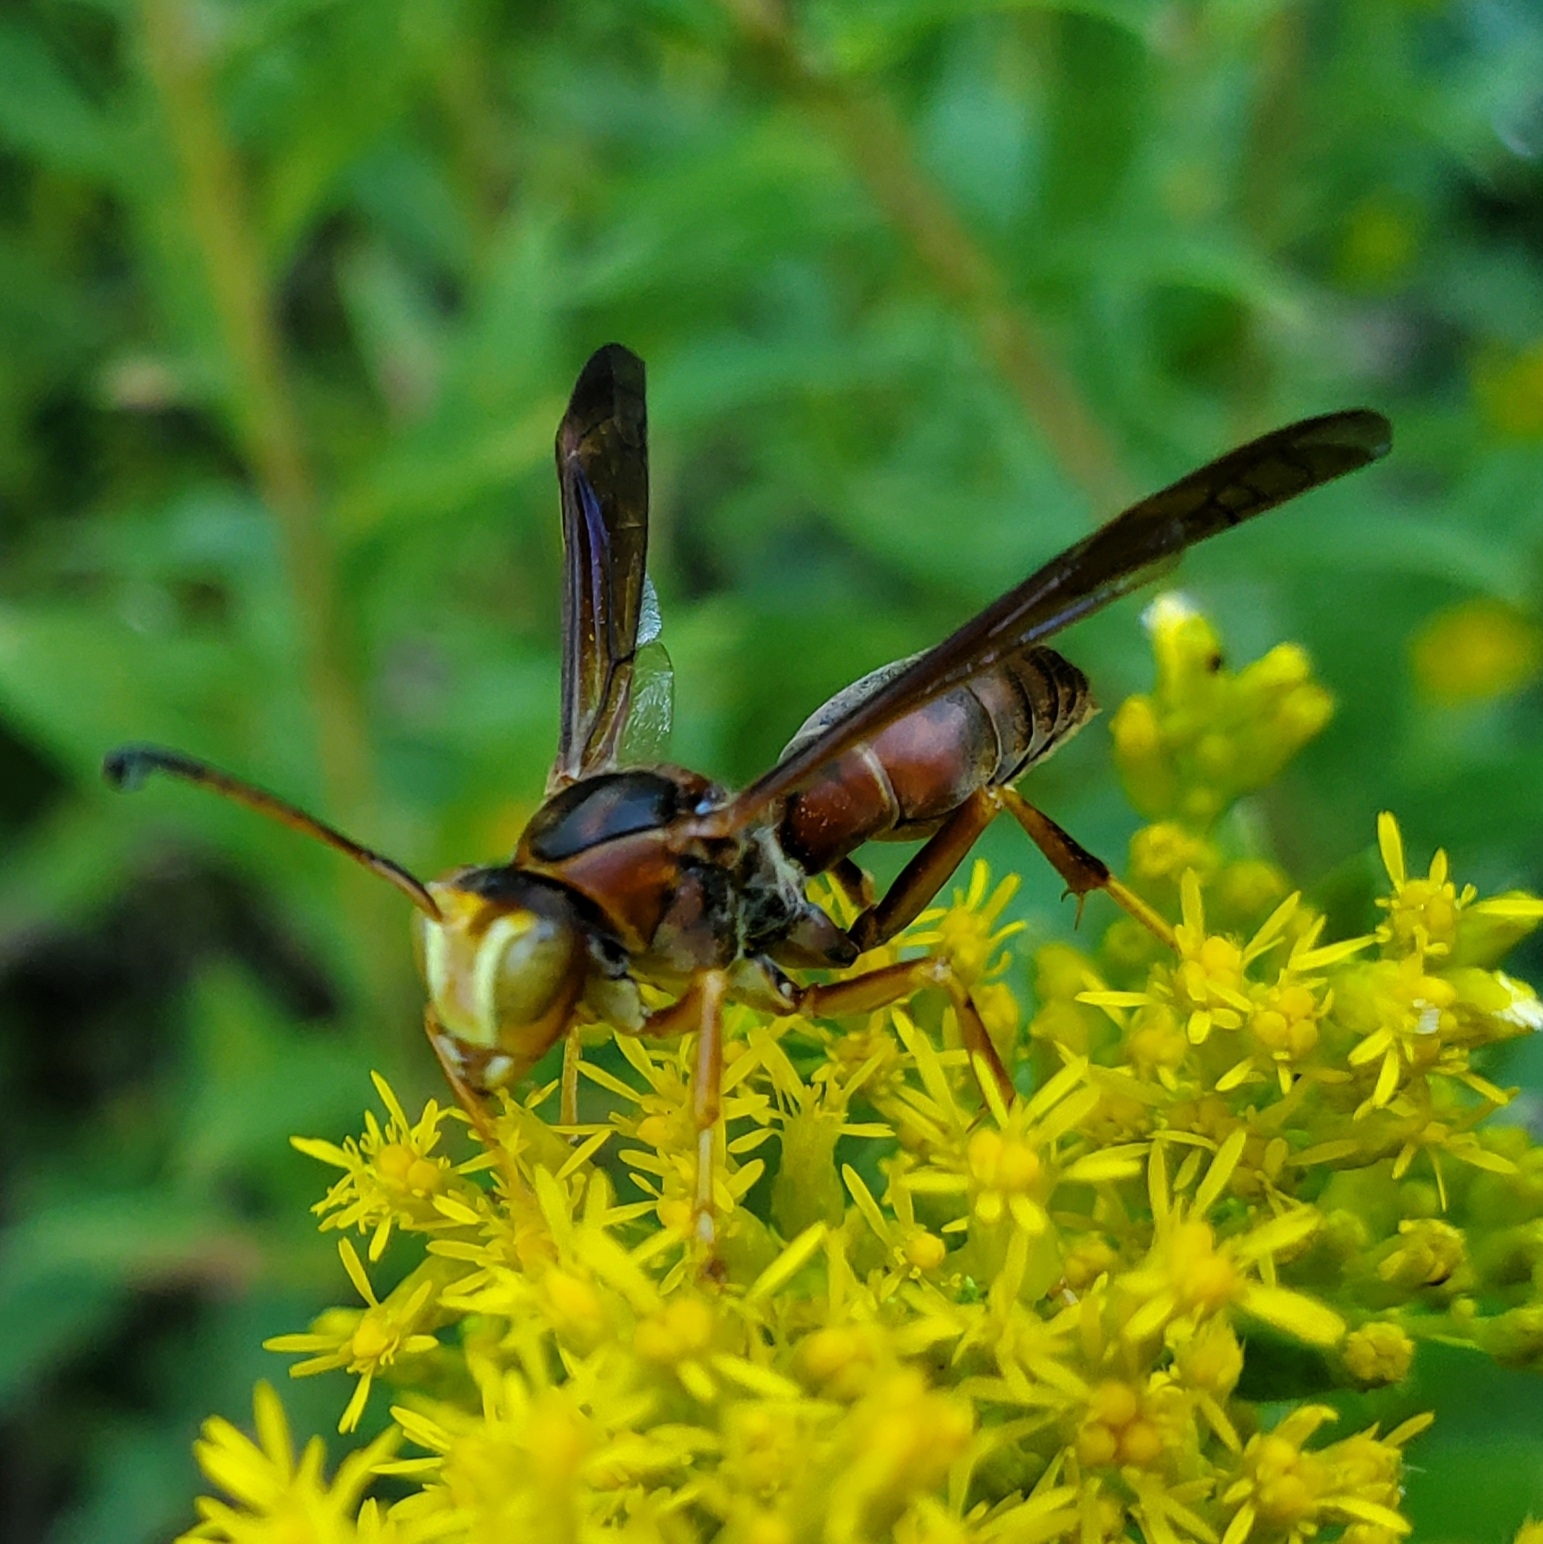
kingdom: Animalia
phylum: Arthropoda
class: Insecta
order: Hymenoptera
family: Eumenidae
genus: Polistes
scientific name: Polistes fuscatus
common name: Dark paper wasp
